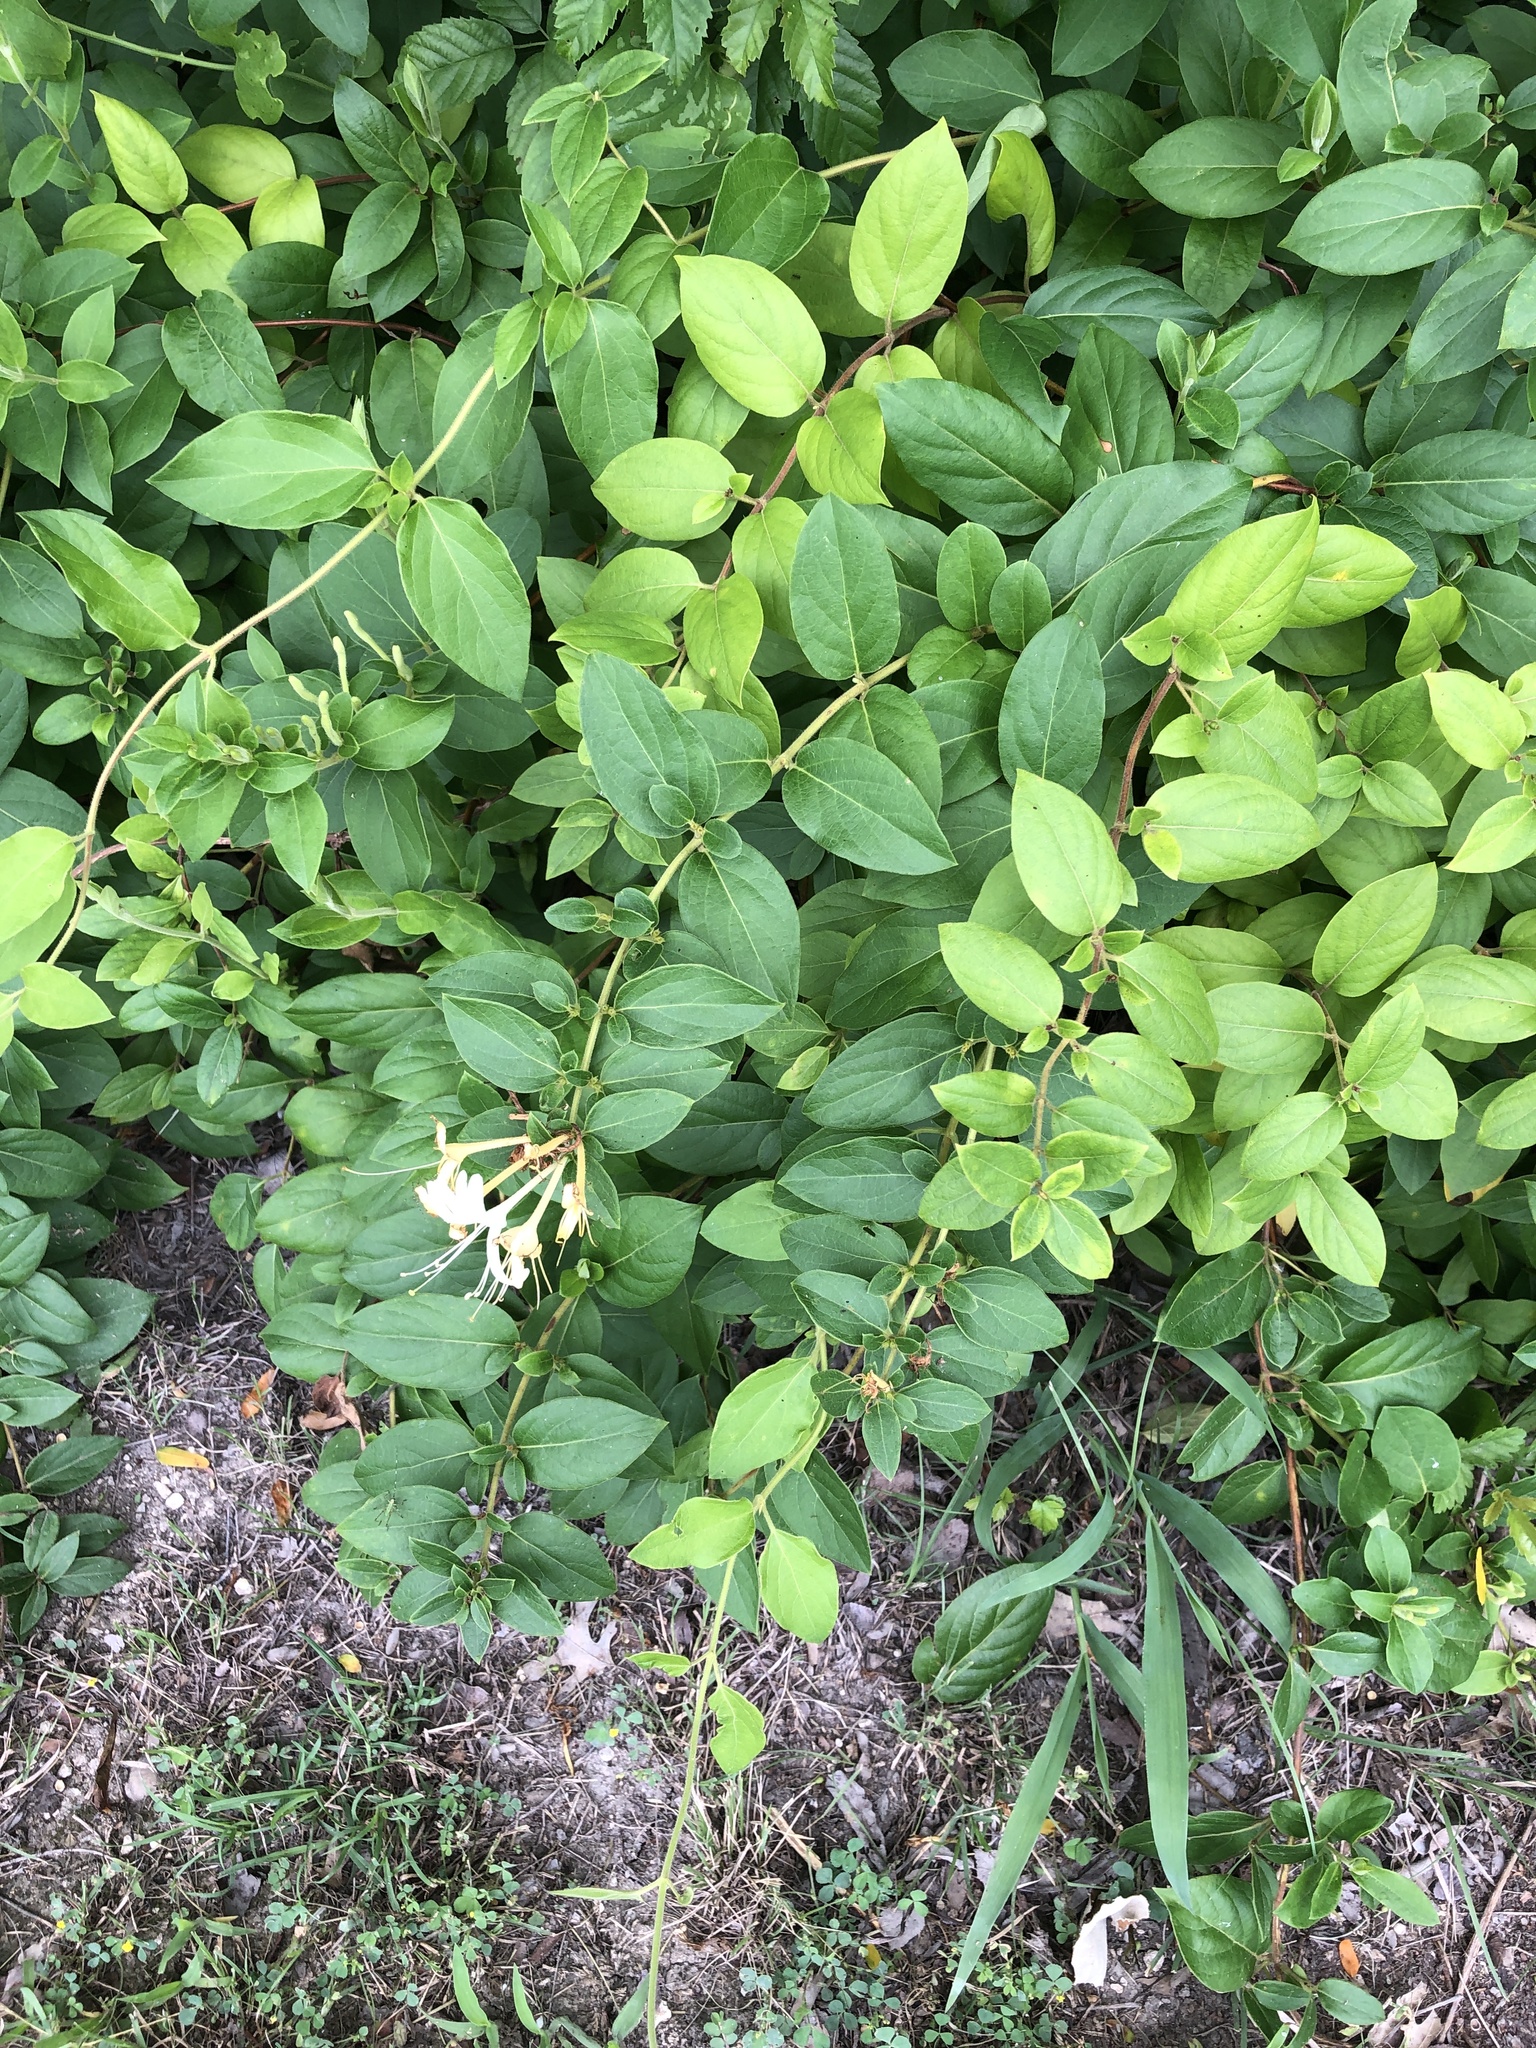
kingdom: Plantae
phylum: Tracheophyta
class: Magnoliopsida
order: Dipsacales
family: Caprifoliaceae
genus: Lonicera
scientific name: Lonicera japonica
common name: Japanese honeysuckle
